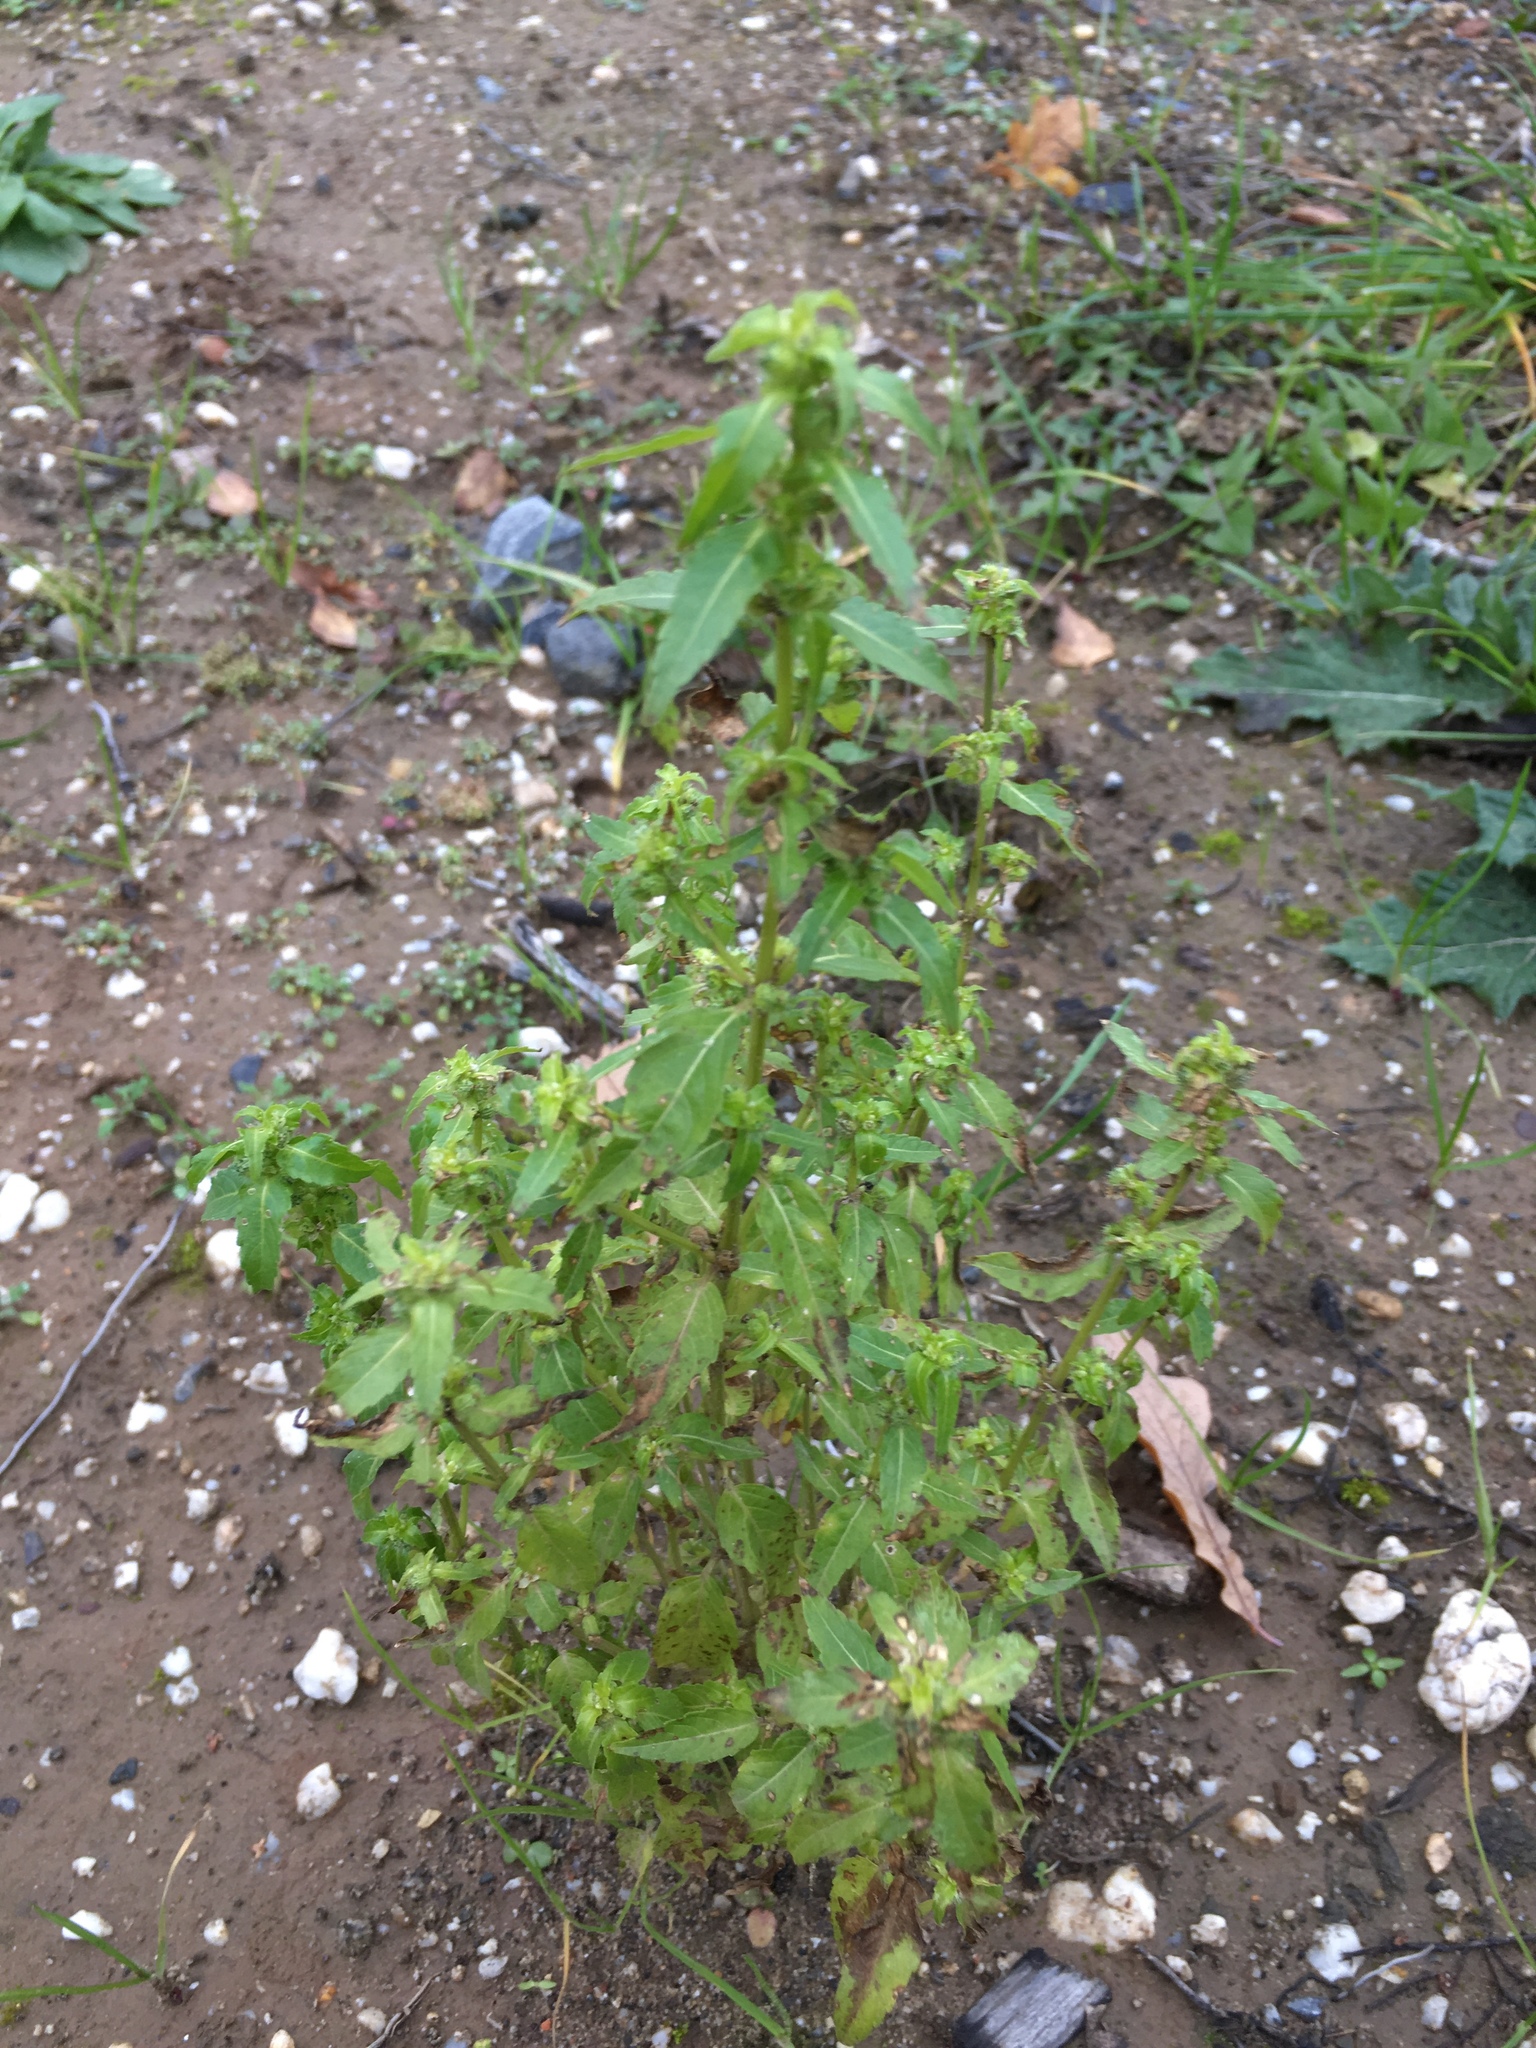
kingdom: Plantae
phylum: Tracheophyta
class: Magnoliopsida
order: Malpighiales
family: Euphorbiaceae
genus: Mercurialis
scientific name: Mercurialis annua
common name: Annual mercury
